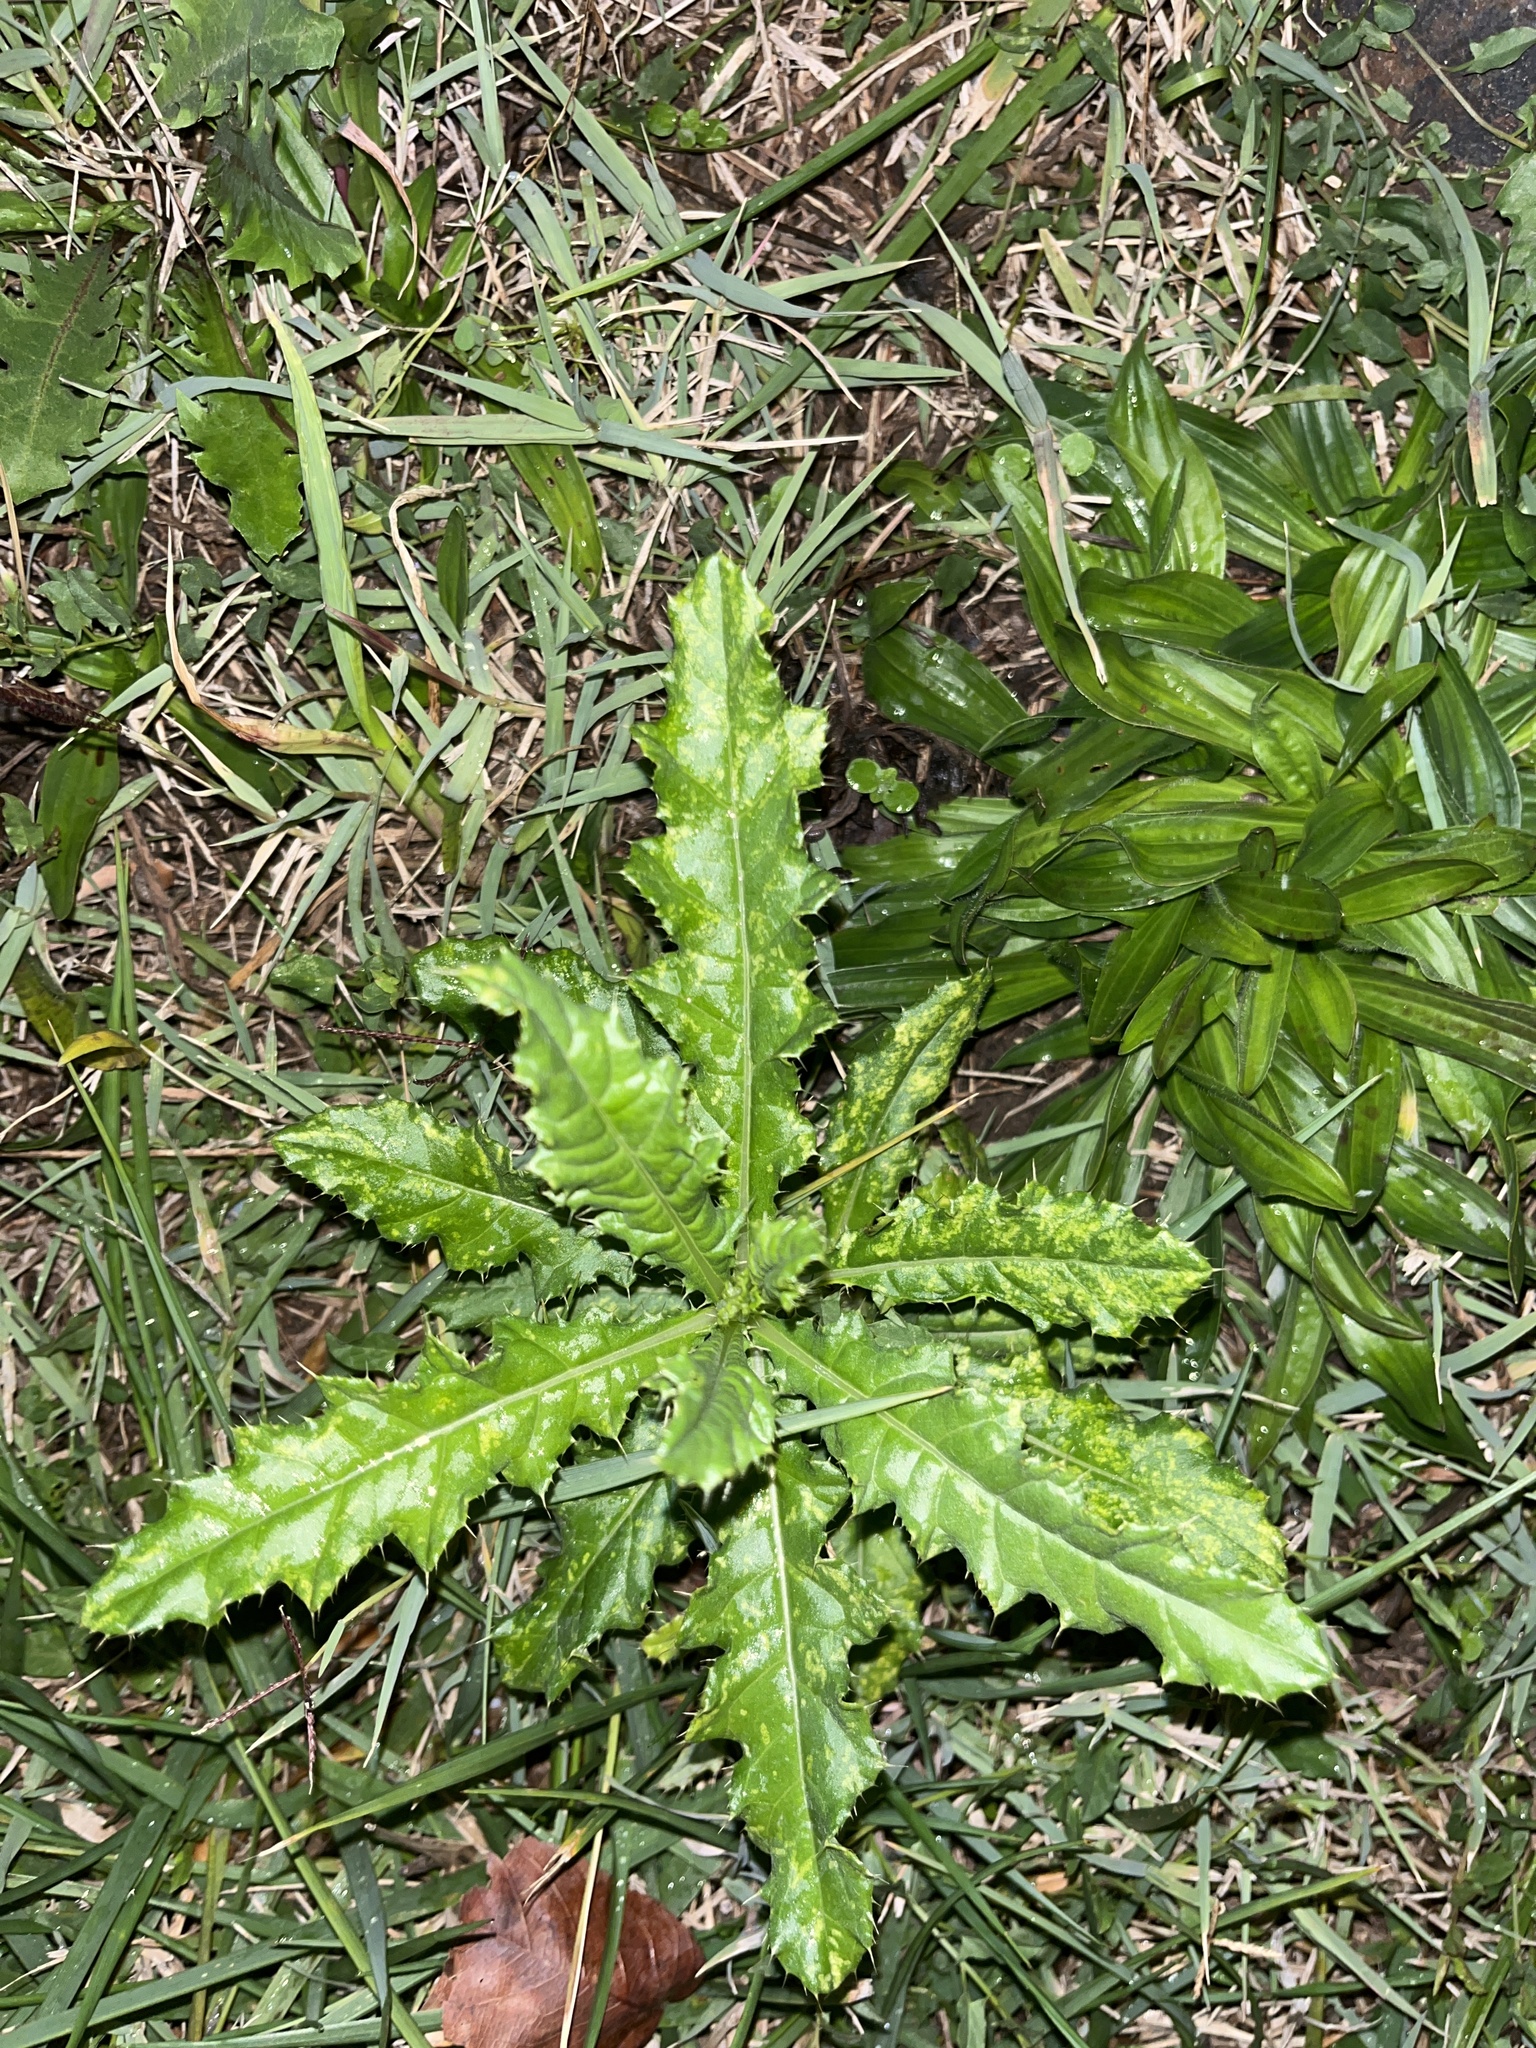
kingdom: Plantae
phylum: Tracheophyta
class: Magnoliopsida
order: Asterales
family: Asteraceae
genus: Cirsium
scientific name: Cirsium arvense
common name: Creeping thistle
